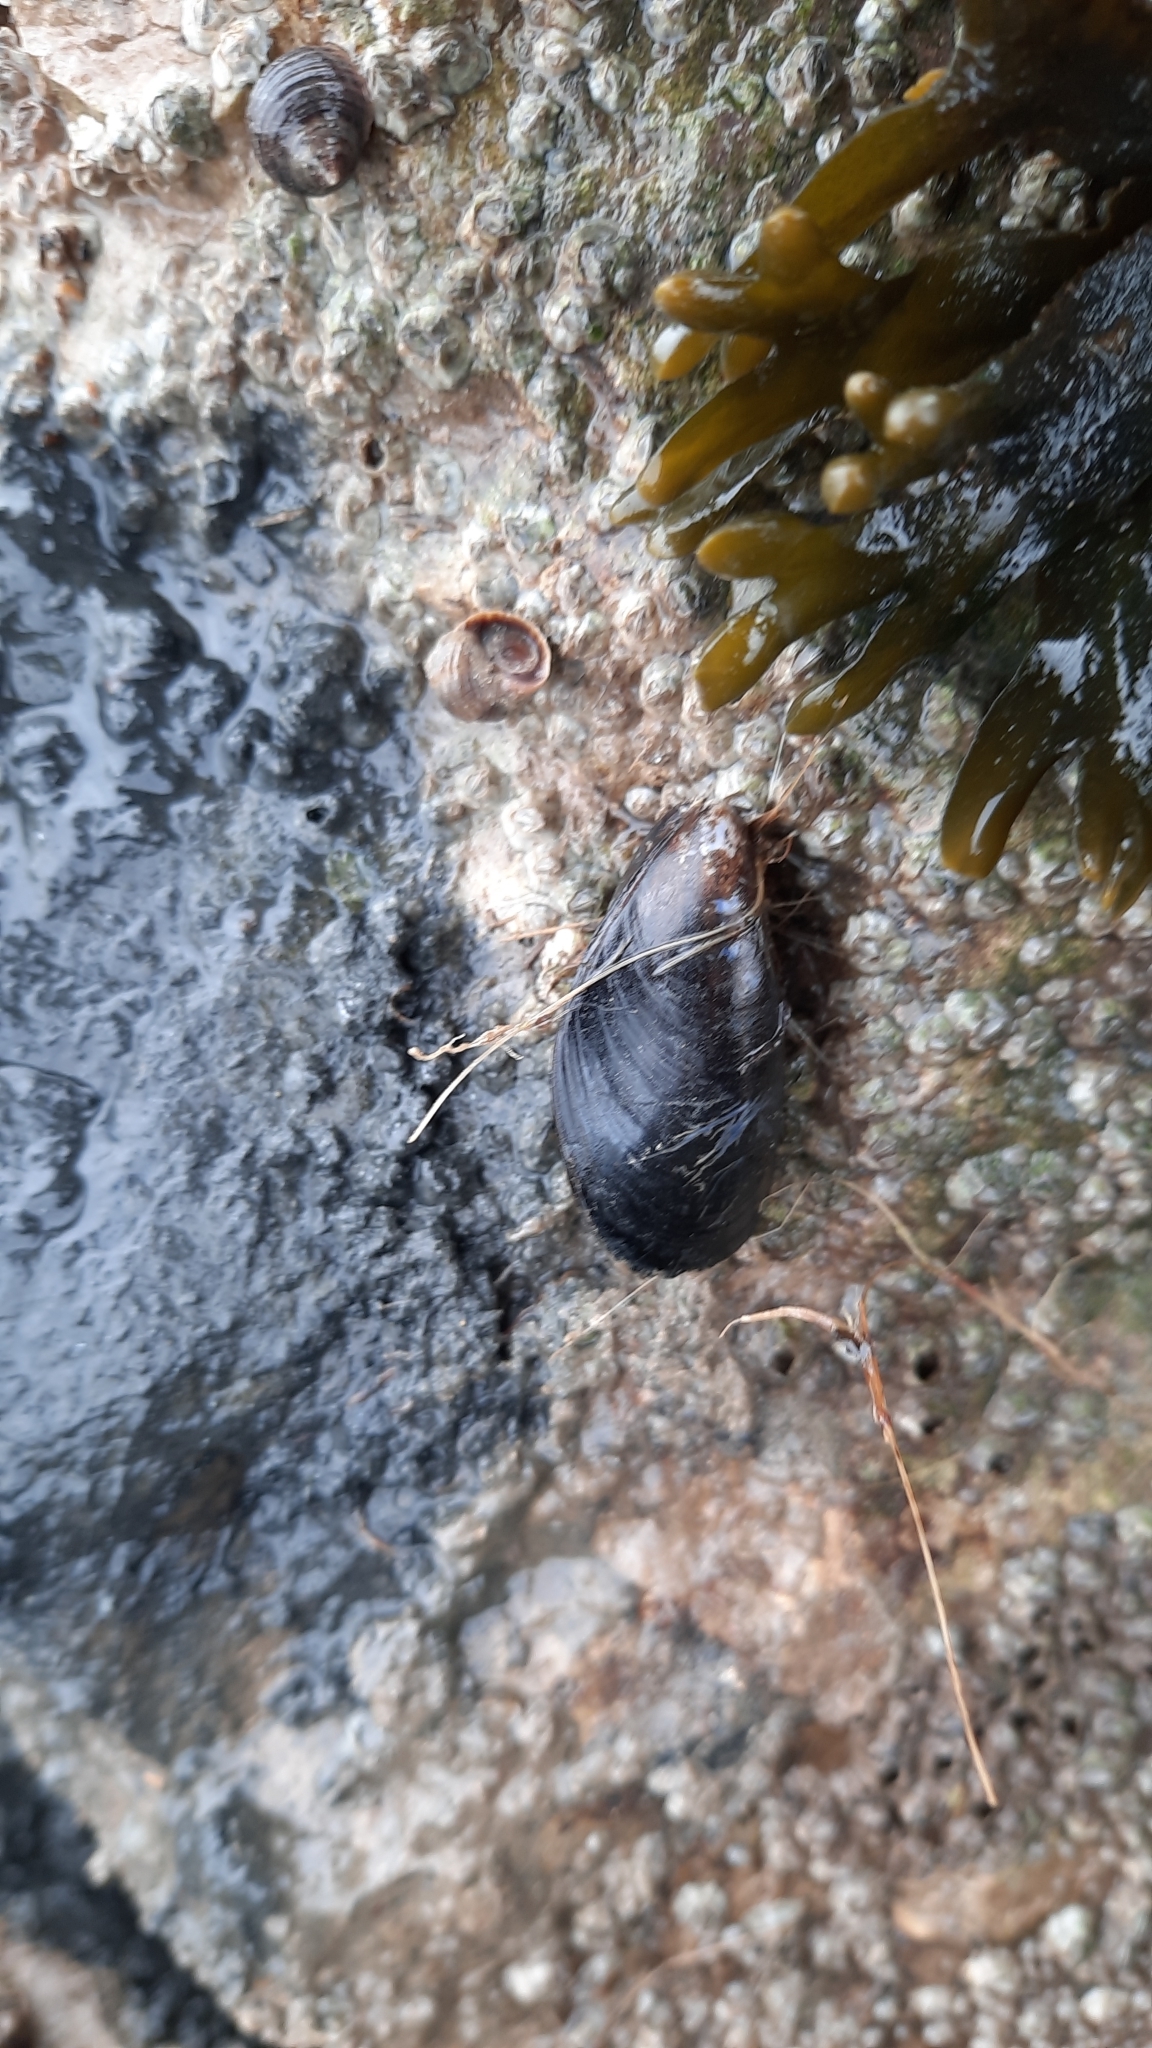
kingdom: Animalia
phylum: Mollusca
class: Bivalvia
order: Mytilida
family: Mytilidae
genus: Mytilus
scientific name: Mytilus edulis
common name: Blue mussel
